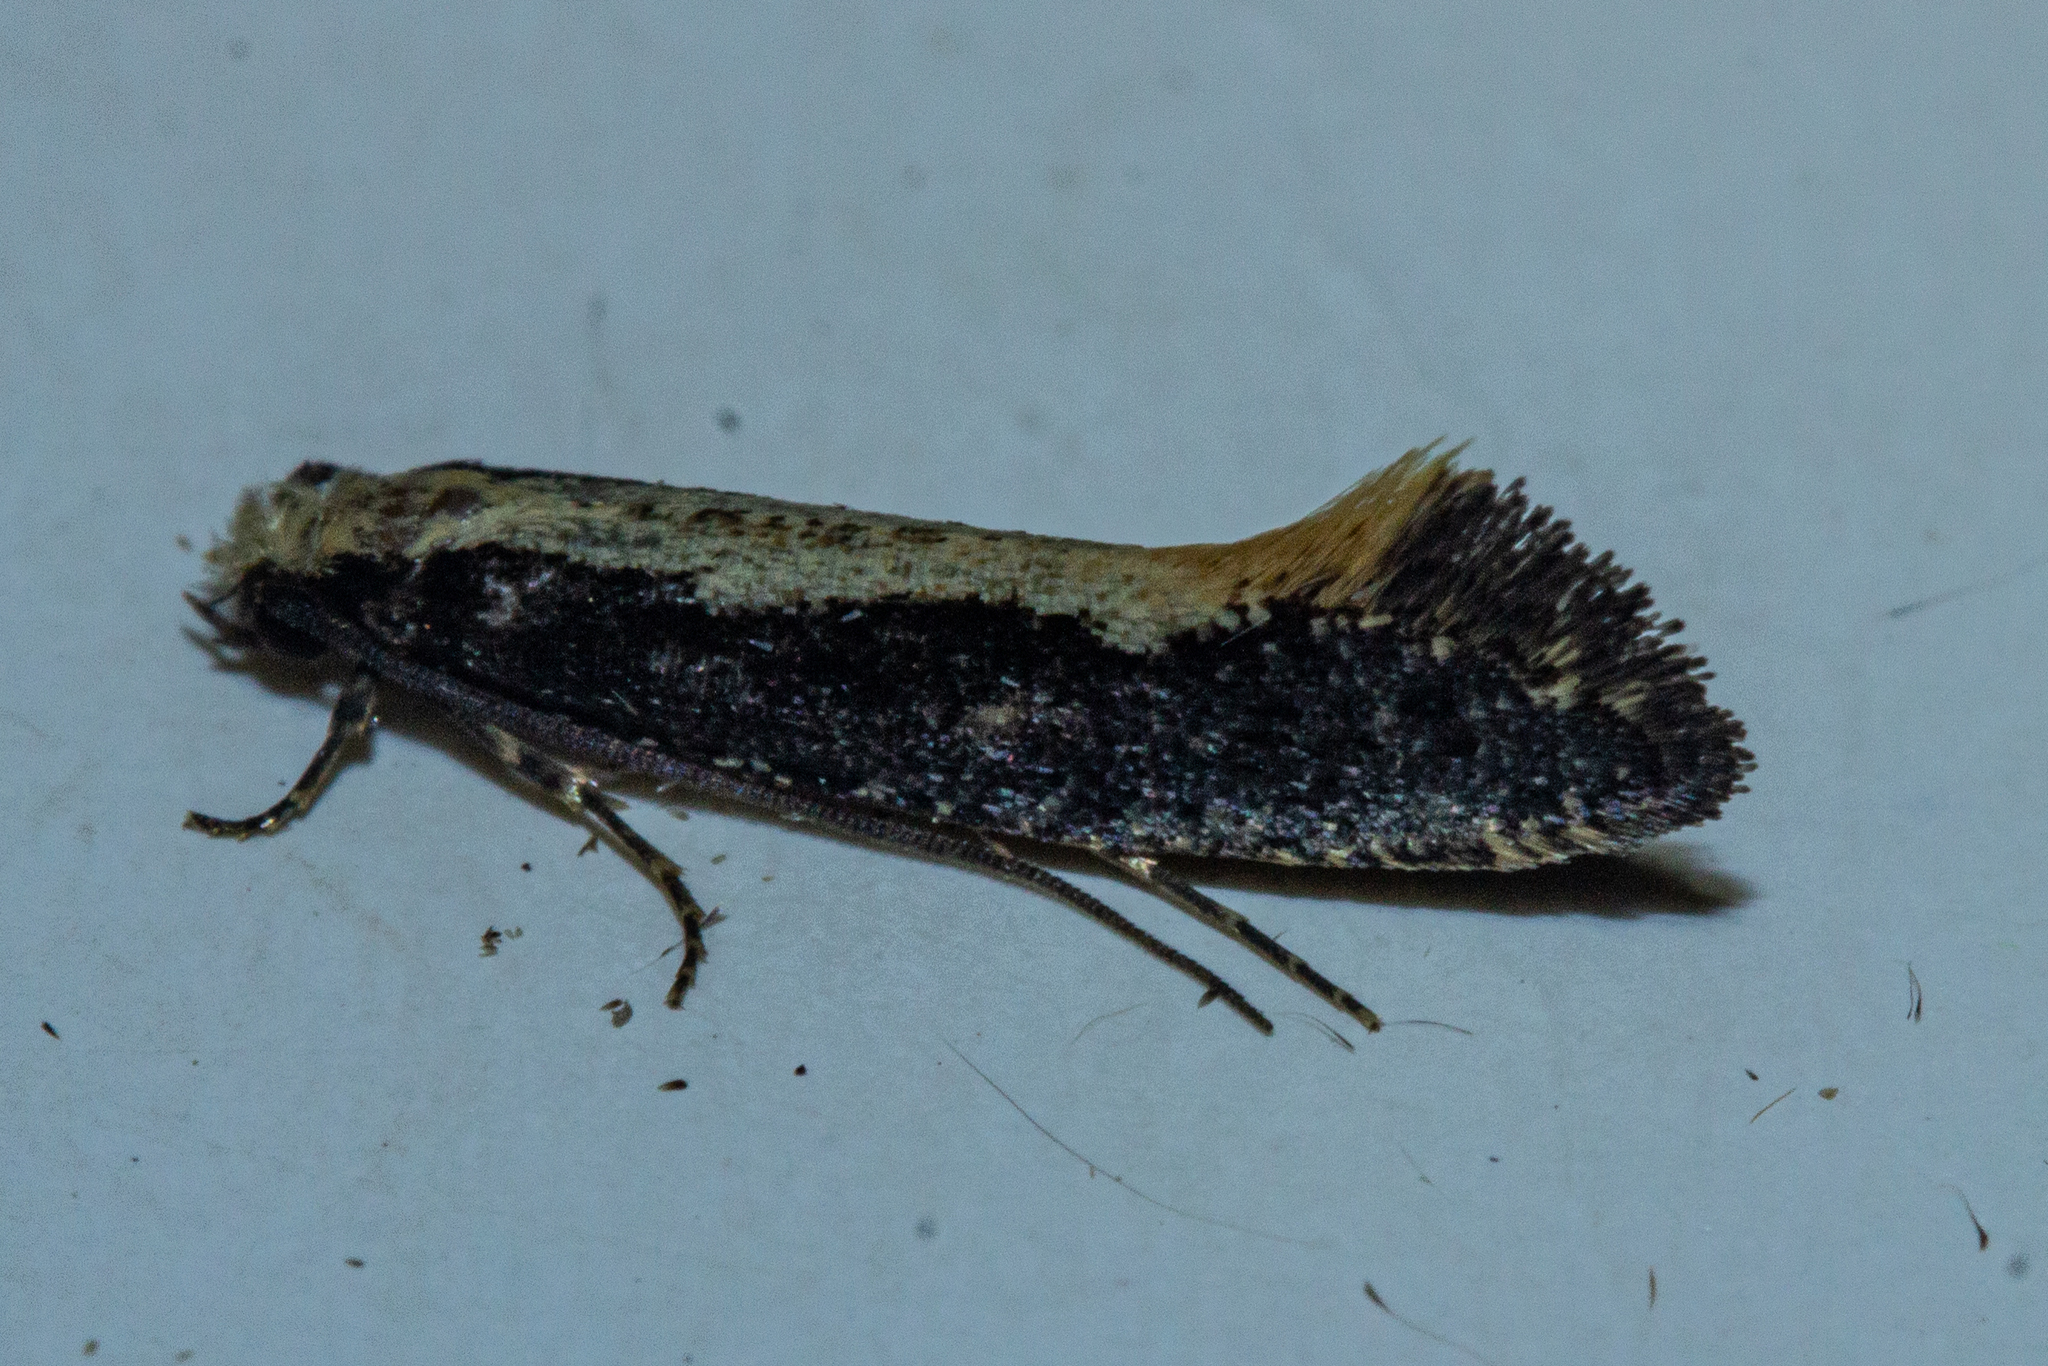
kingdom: Animalia
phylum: Arthropoda
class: Insecta
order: Lepidoptera
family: Tineidae
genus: Monopis
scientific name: Monopis dimorphella
